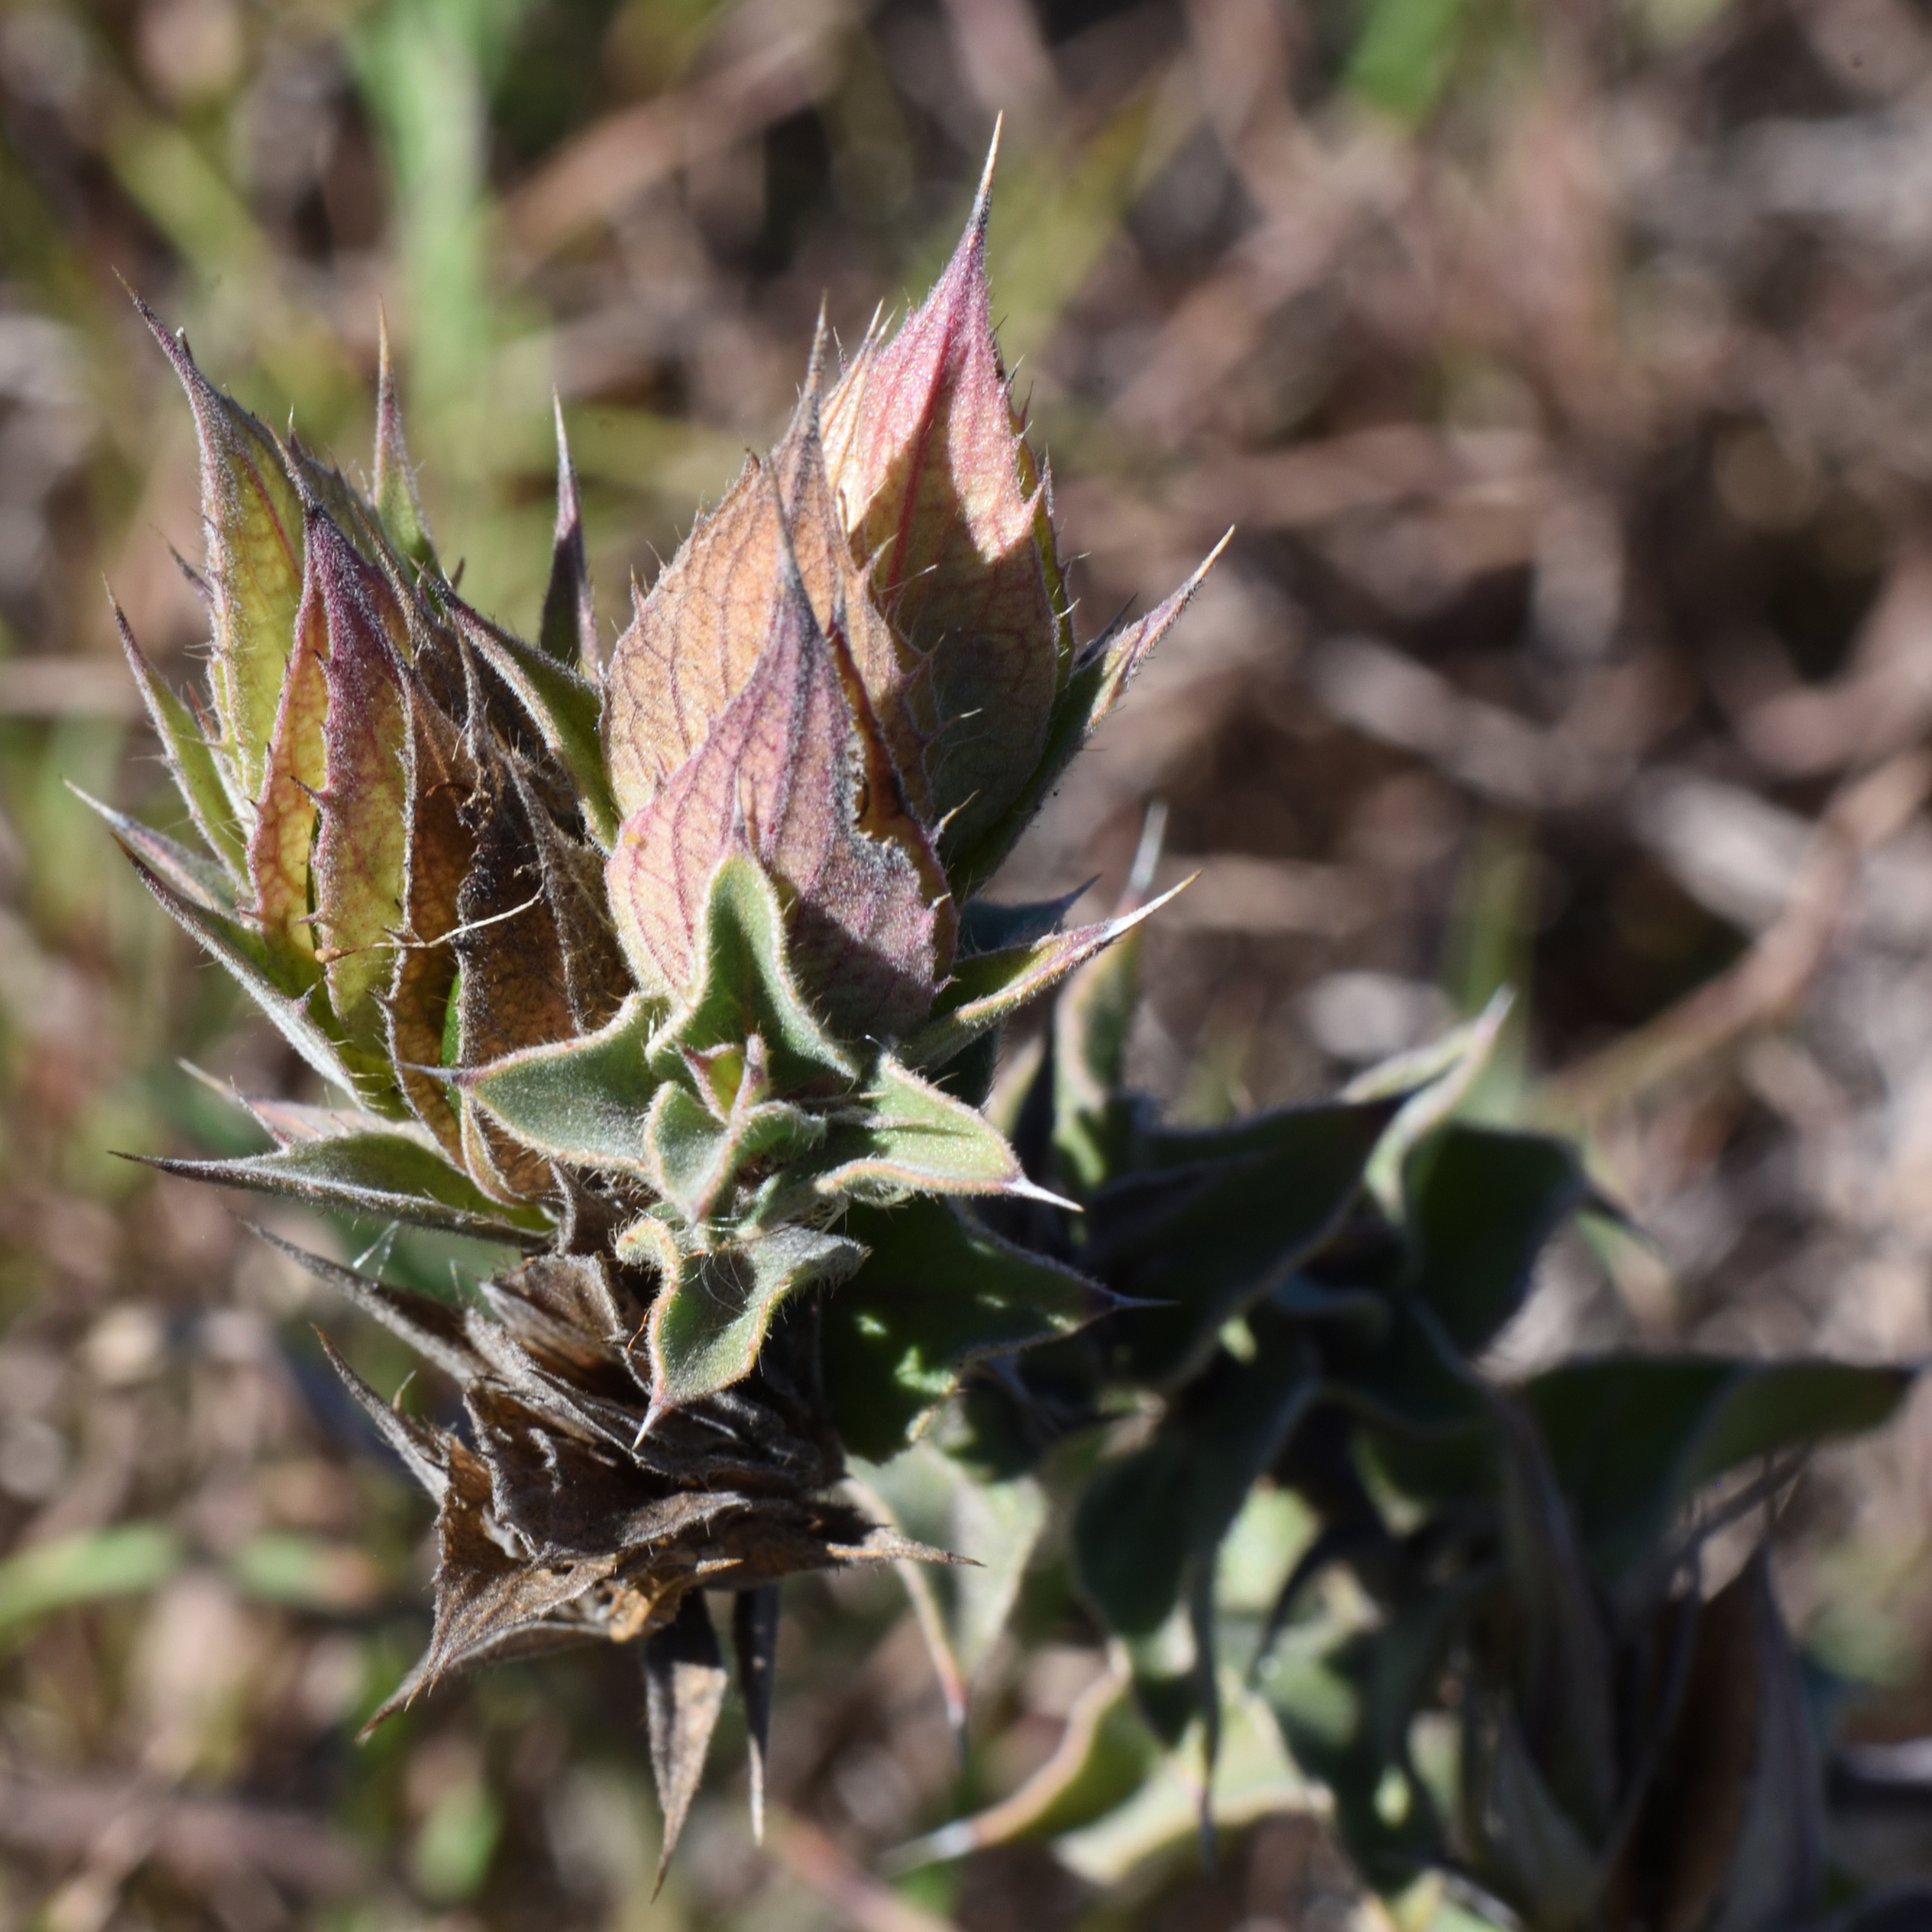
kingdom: Plantae
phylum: Tracheophyta
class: Magnoliopsida
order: Lamiales
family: Acanthaceae
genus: Barleria
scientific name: Barleria pungens
